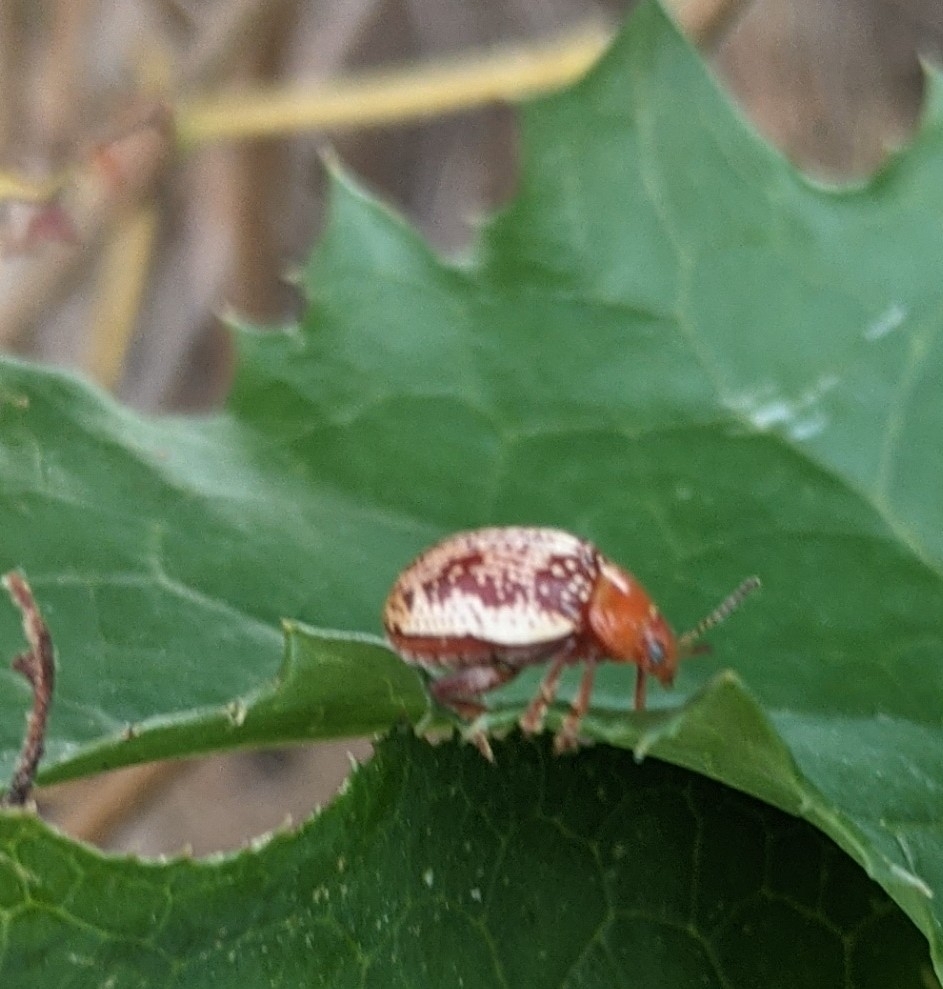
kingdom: Animalia
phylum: Arthropoda
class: Insecta
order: Coleoptera
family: Chrysomelidae
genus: Blepharida
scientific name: Blepharida rhois
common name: Sumac flea beetle
